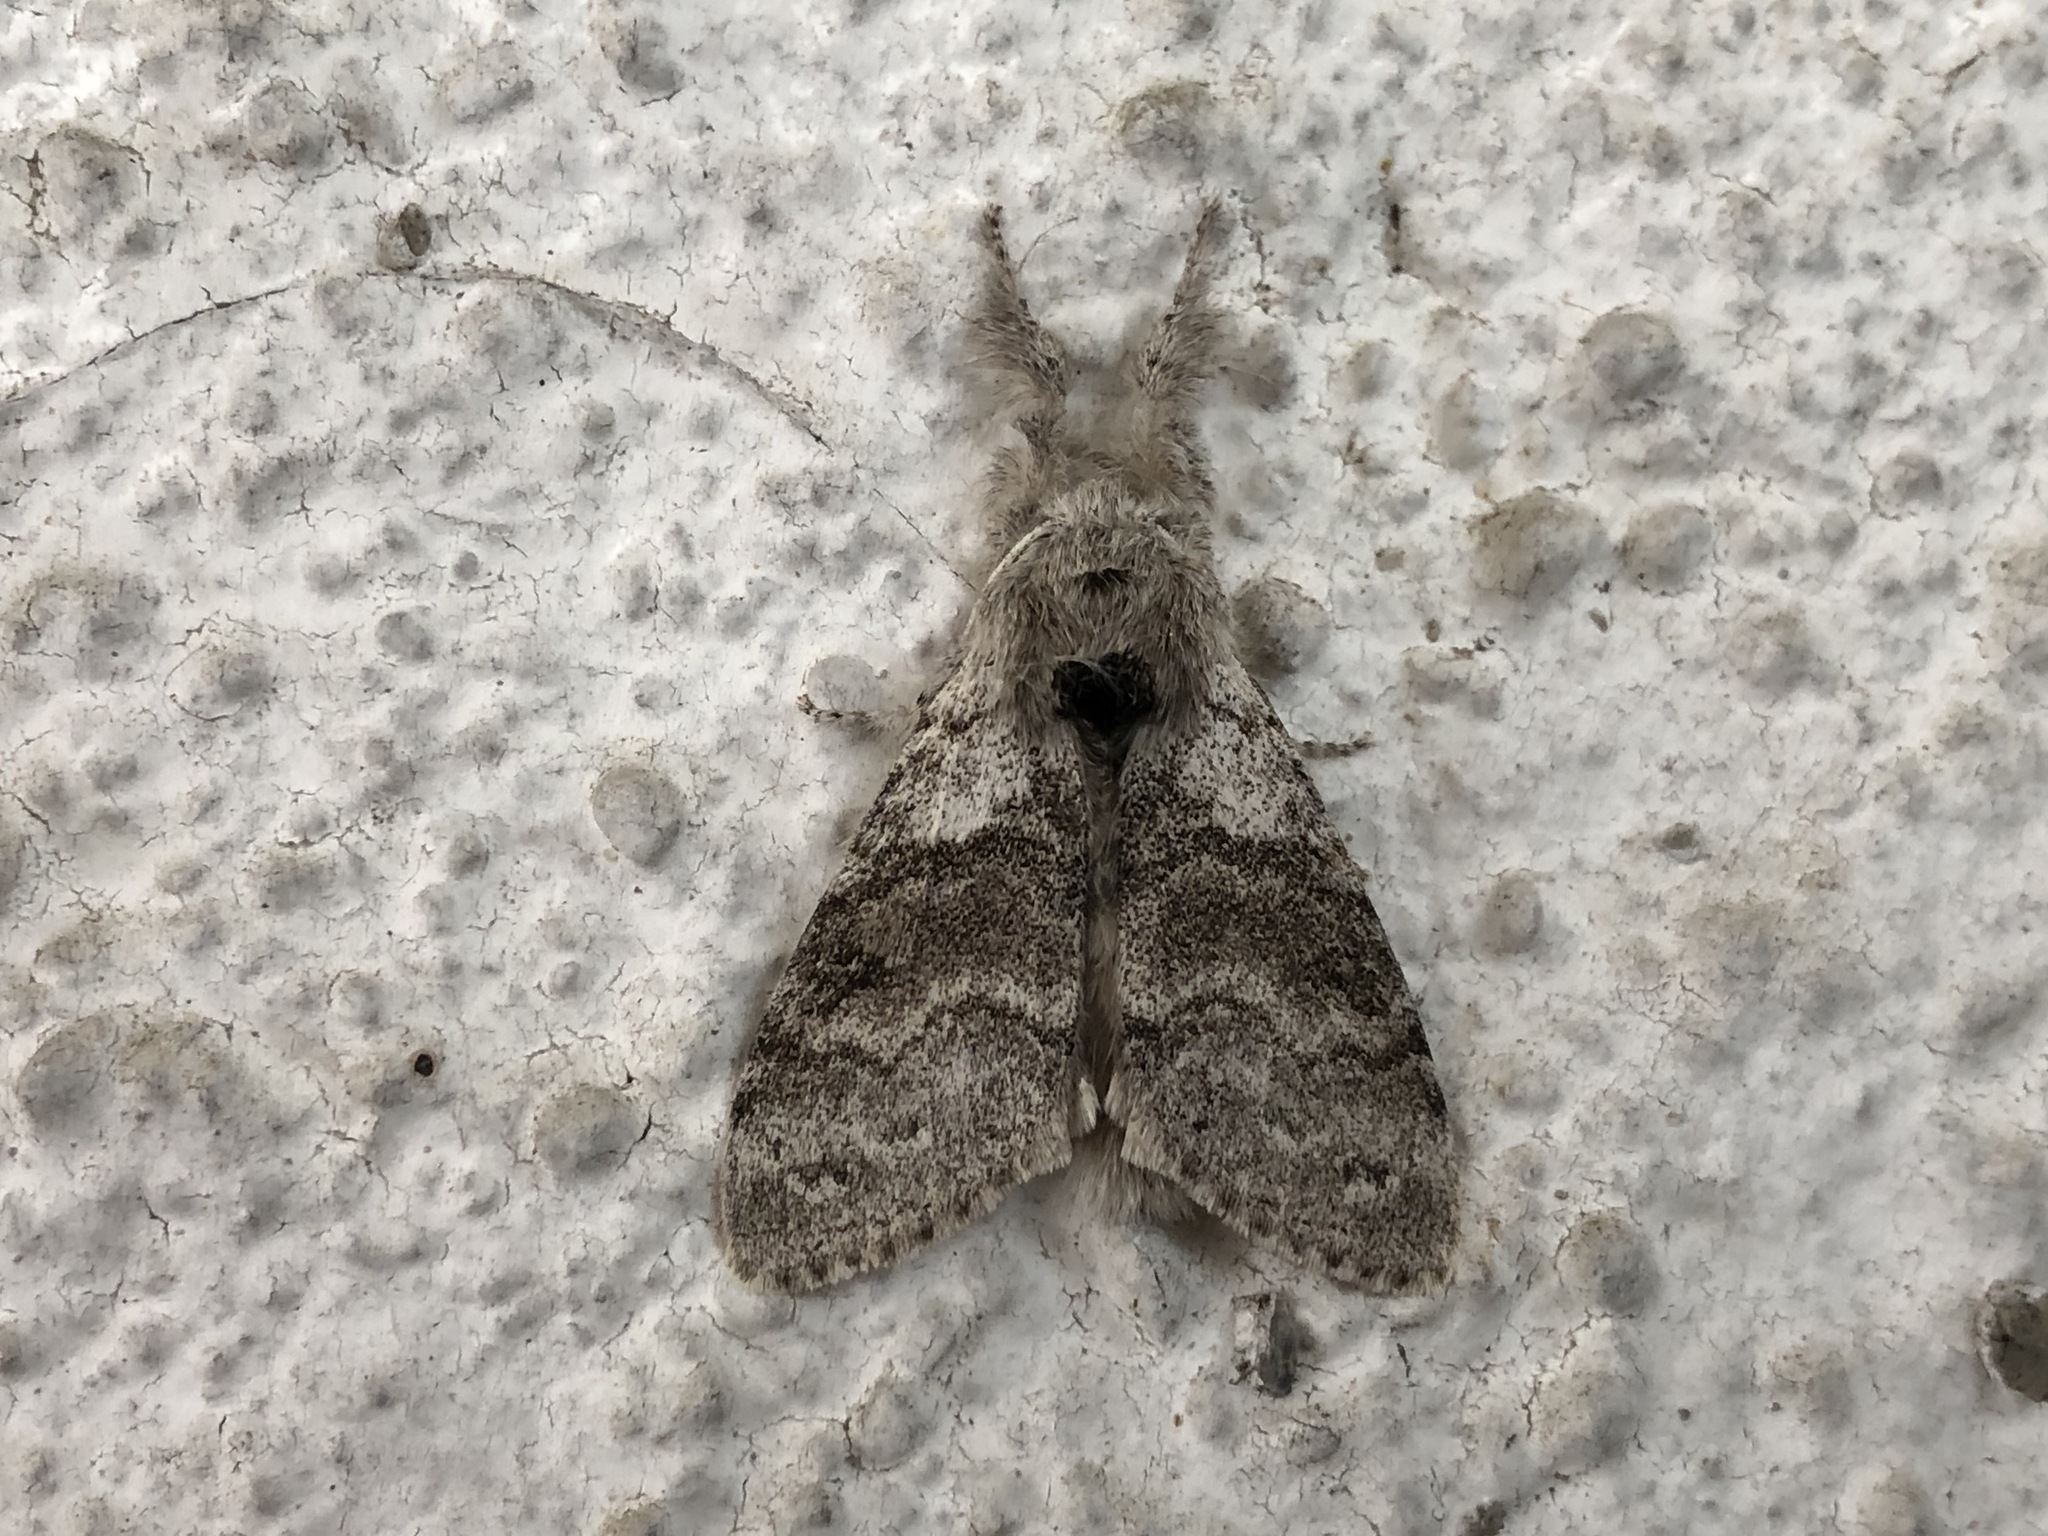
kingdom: Animalia
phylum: Arthropoda
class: Insecta
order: Lepidoptera
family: Erebidae
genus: Calliteara
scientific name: Calliteara pudibunda
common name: Pale tussock
